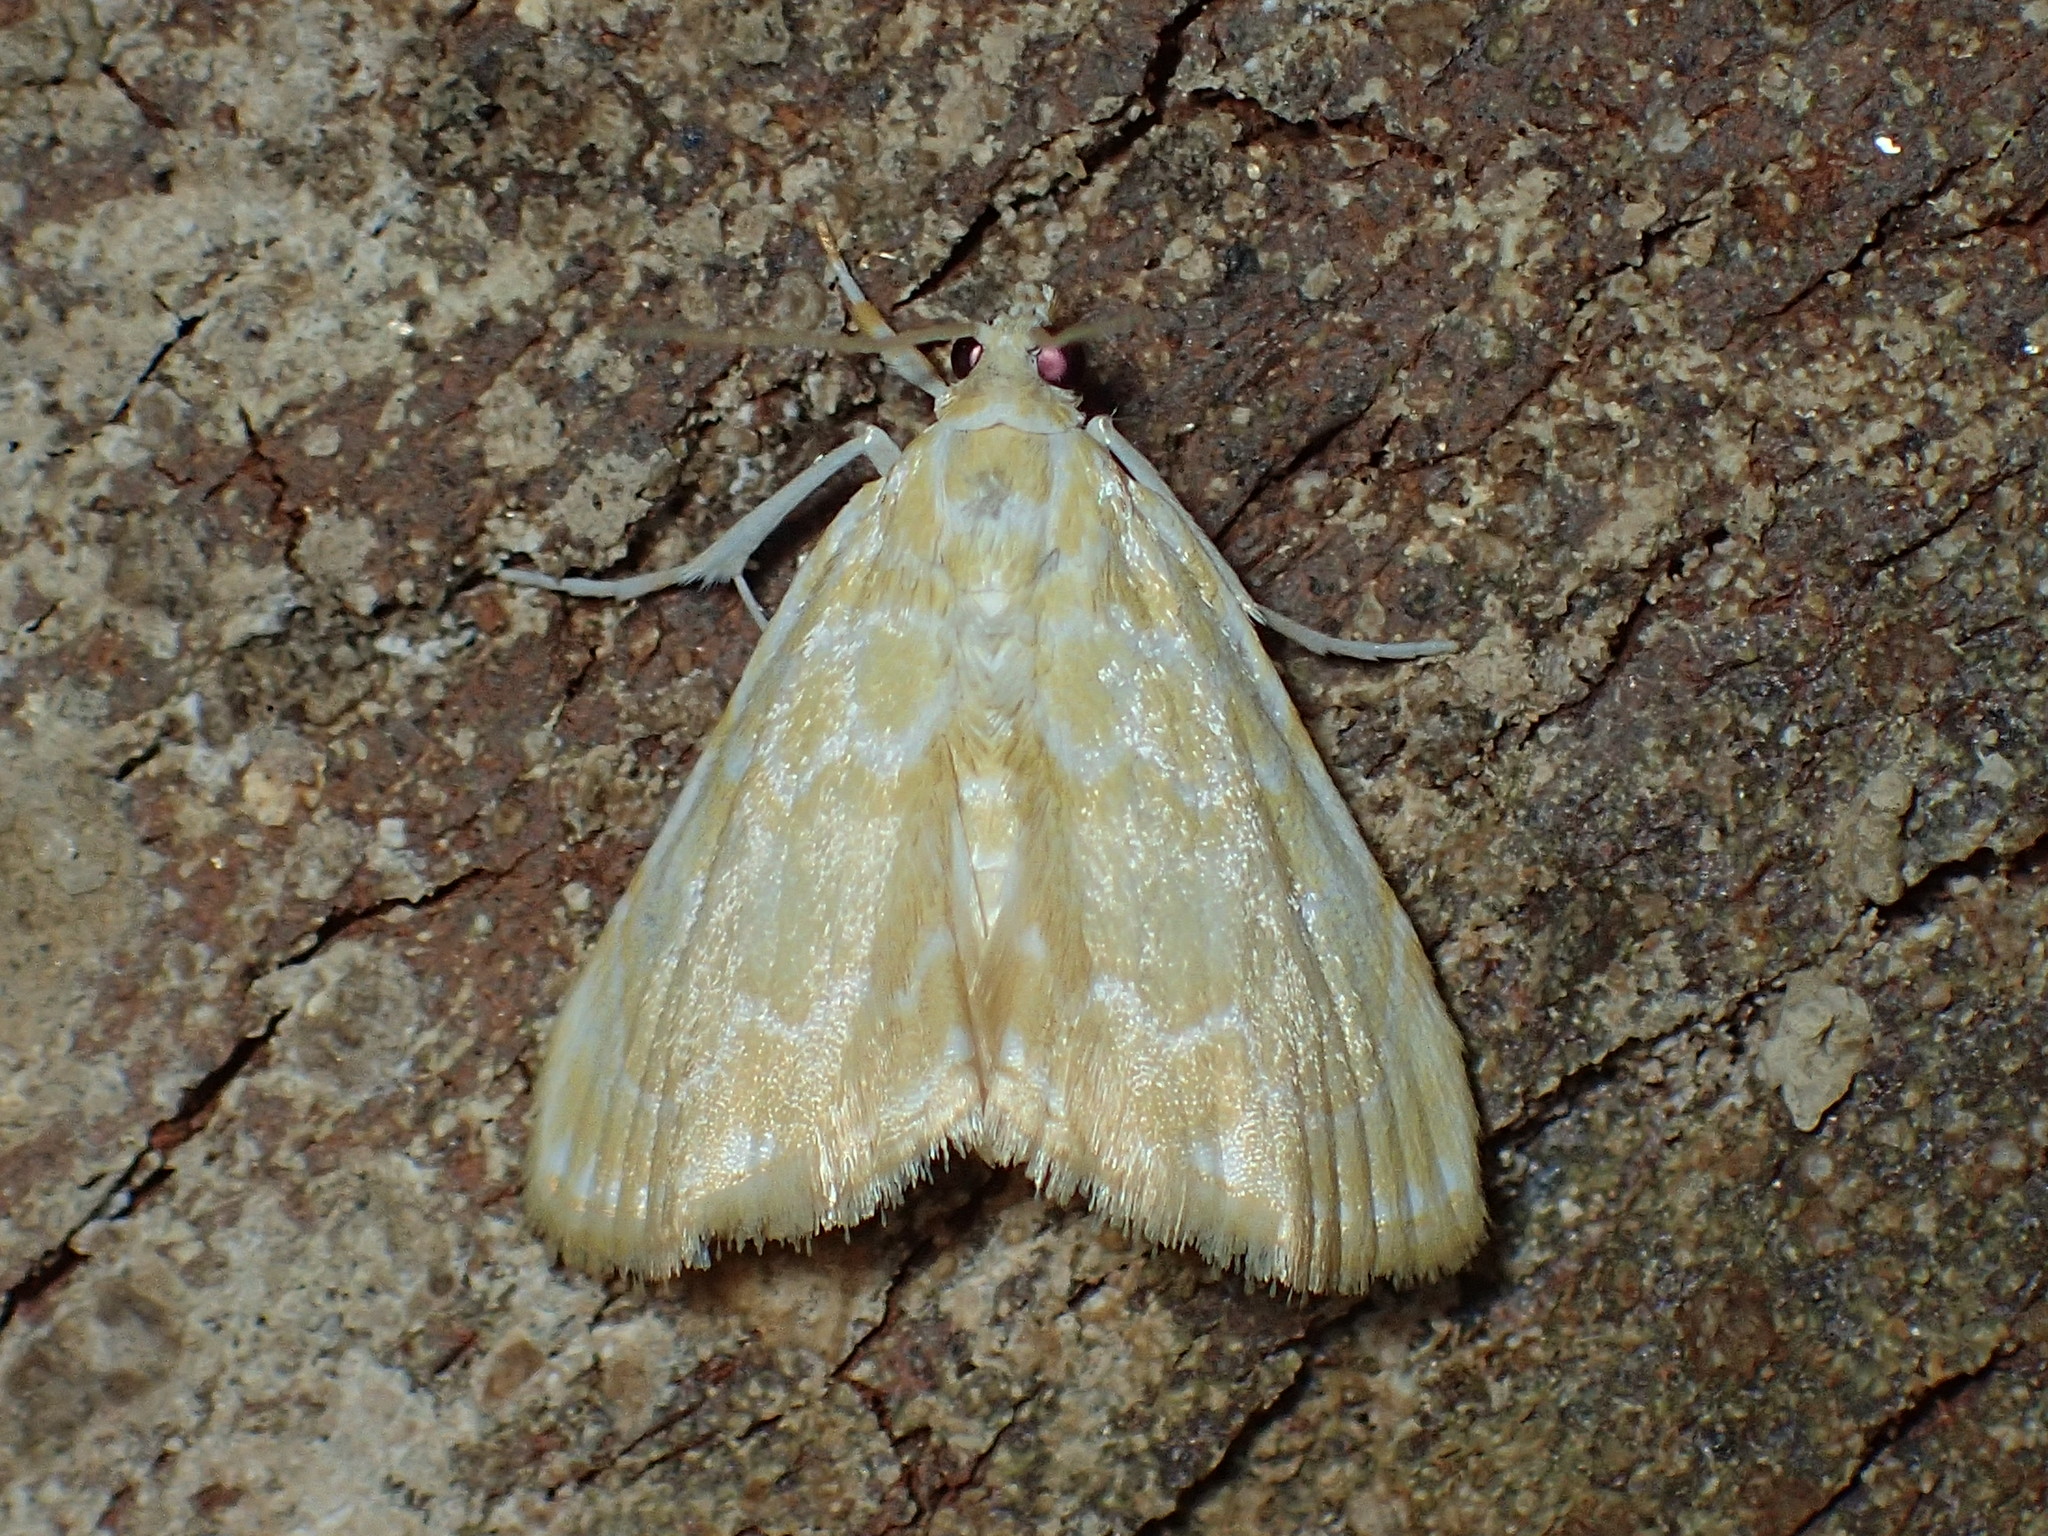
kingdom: Animalia
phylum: Arthropoda
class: Insecta
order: Lepidoptera
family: Crambidae
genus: Glaphyria
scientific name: Glaphyria glaphyralis
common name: Common glaphyria moth
